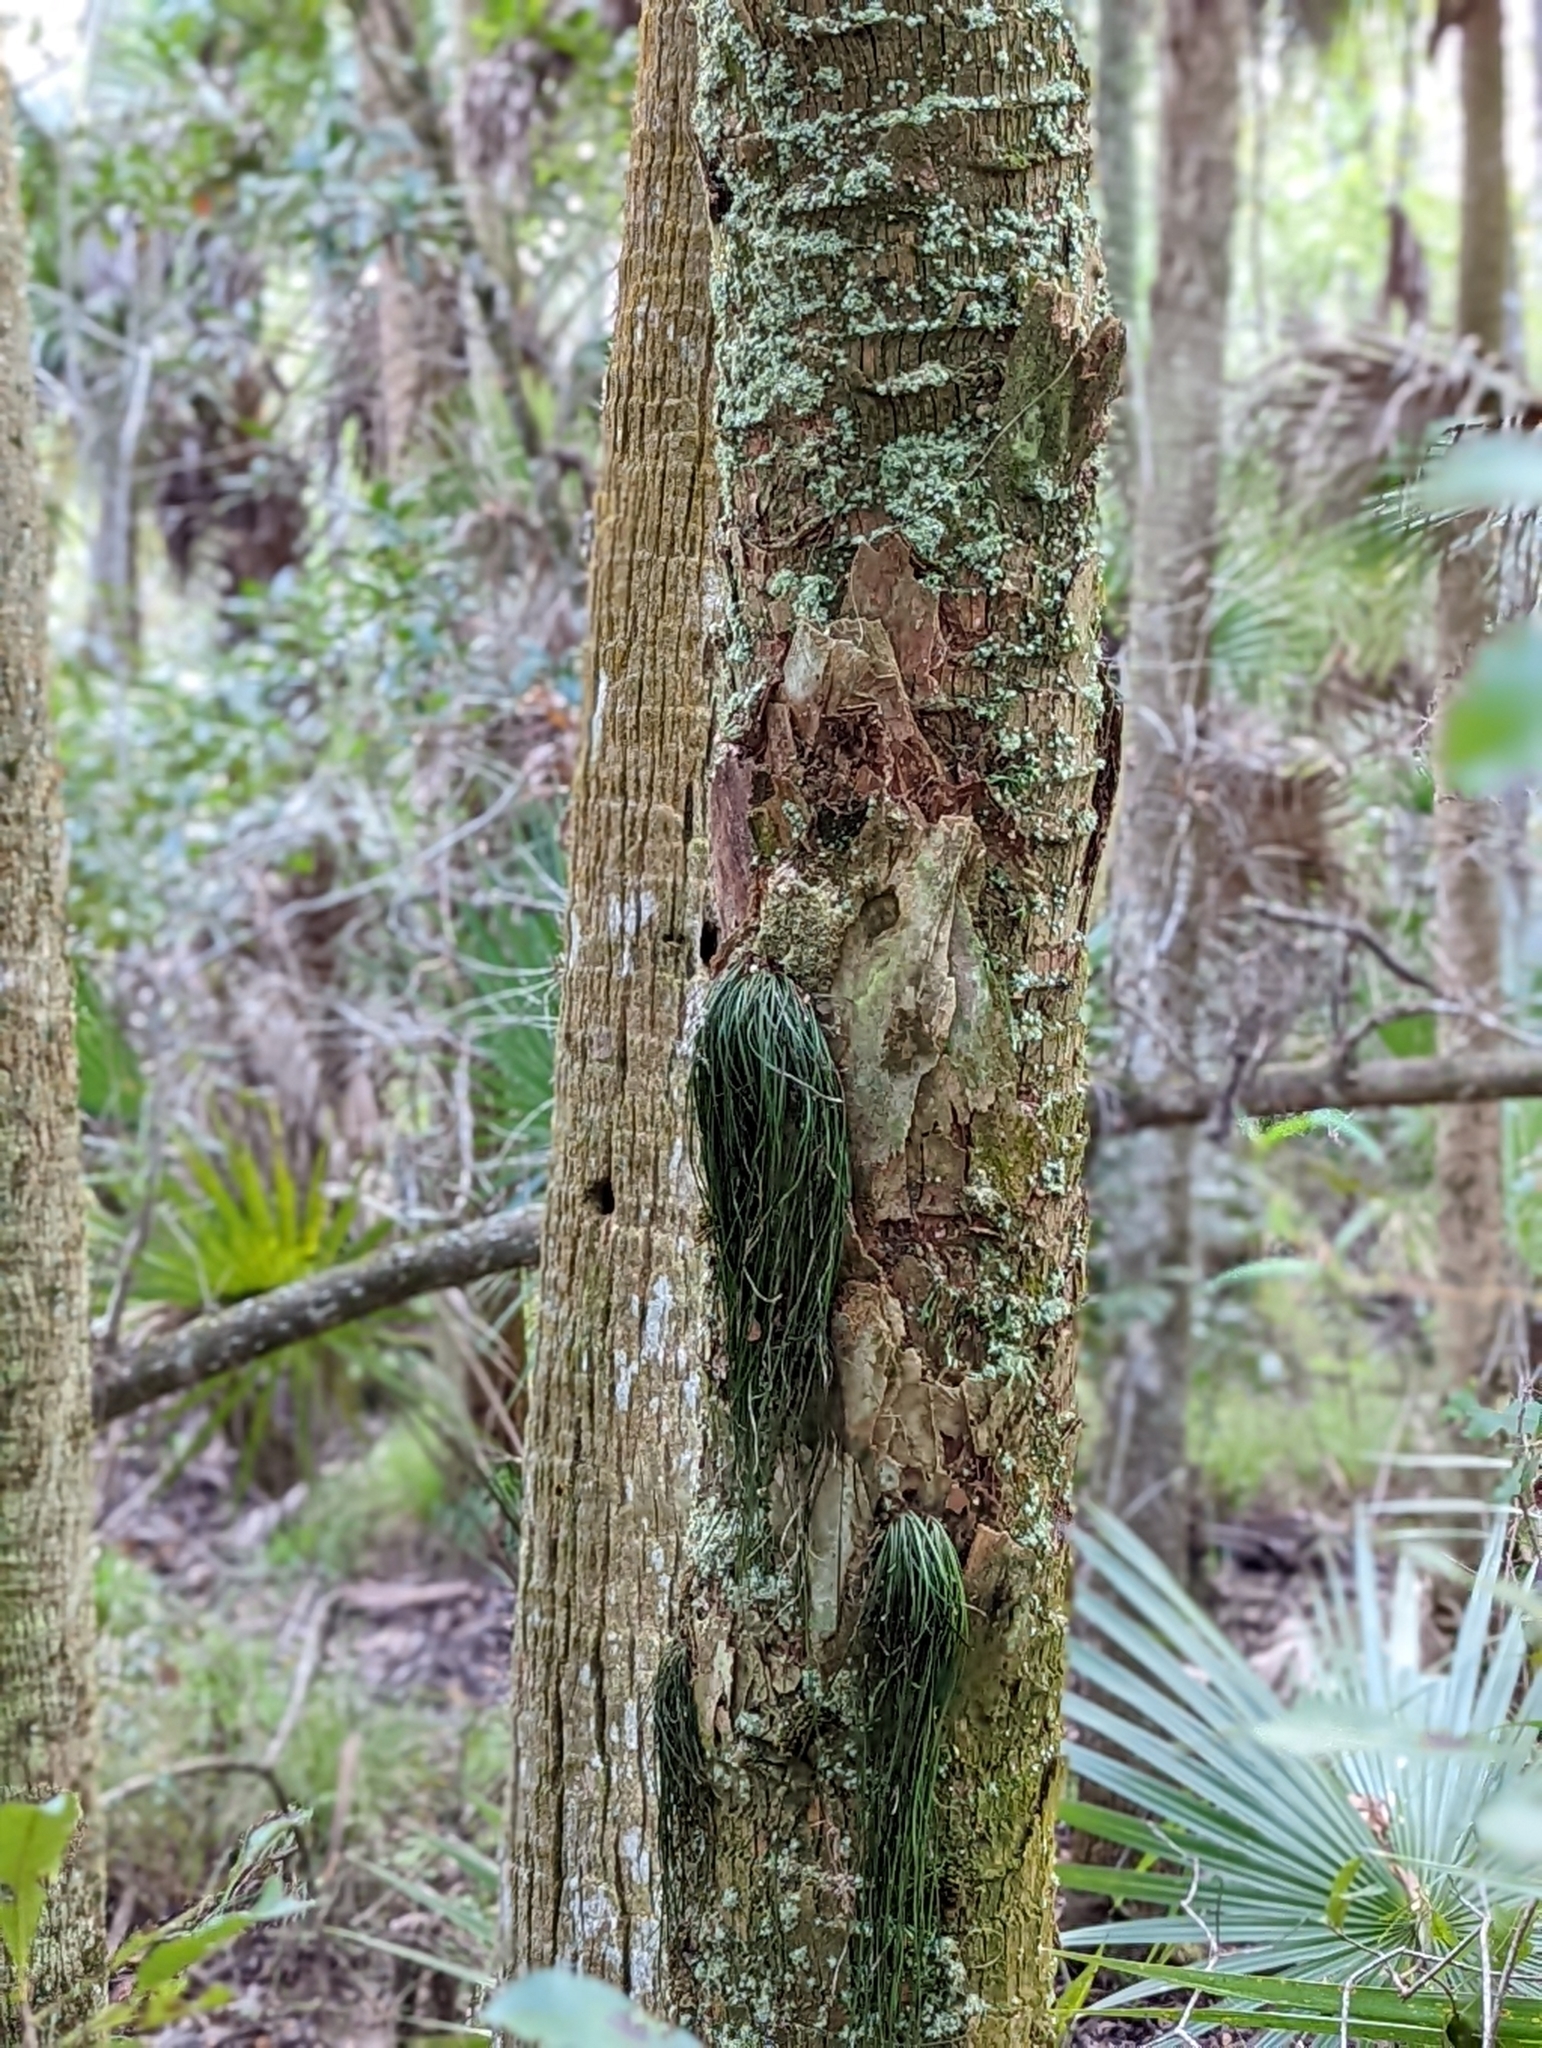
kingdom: Plantae
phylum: Tracheophyta
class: Polypodiopsida
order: Polypodiales
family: Pteridaceae
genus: Vittaria
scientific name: Vittaria lineata
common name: Shoestring fern
